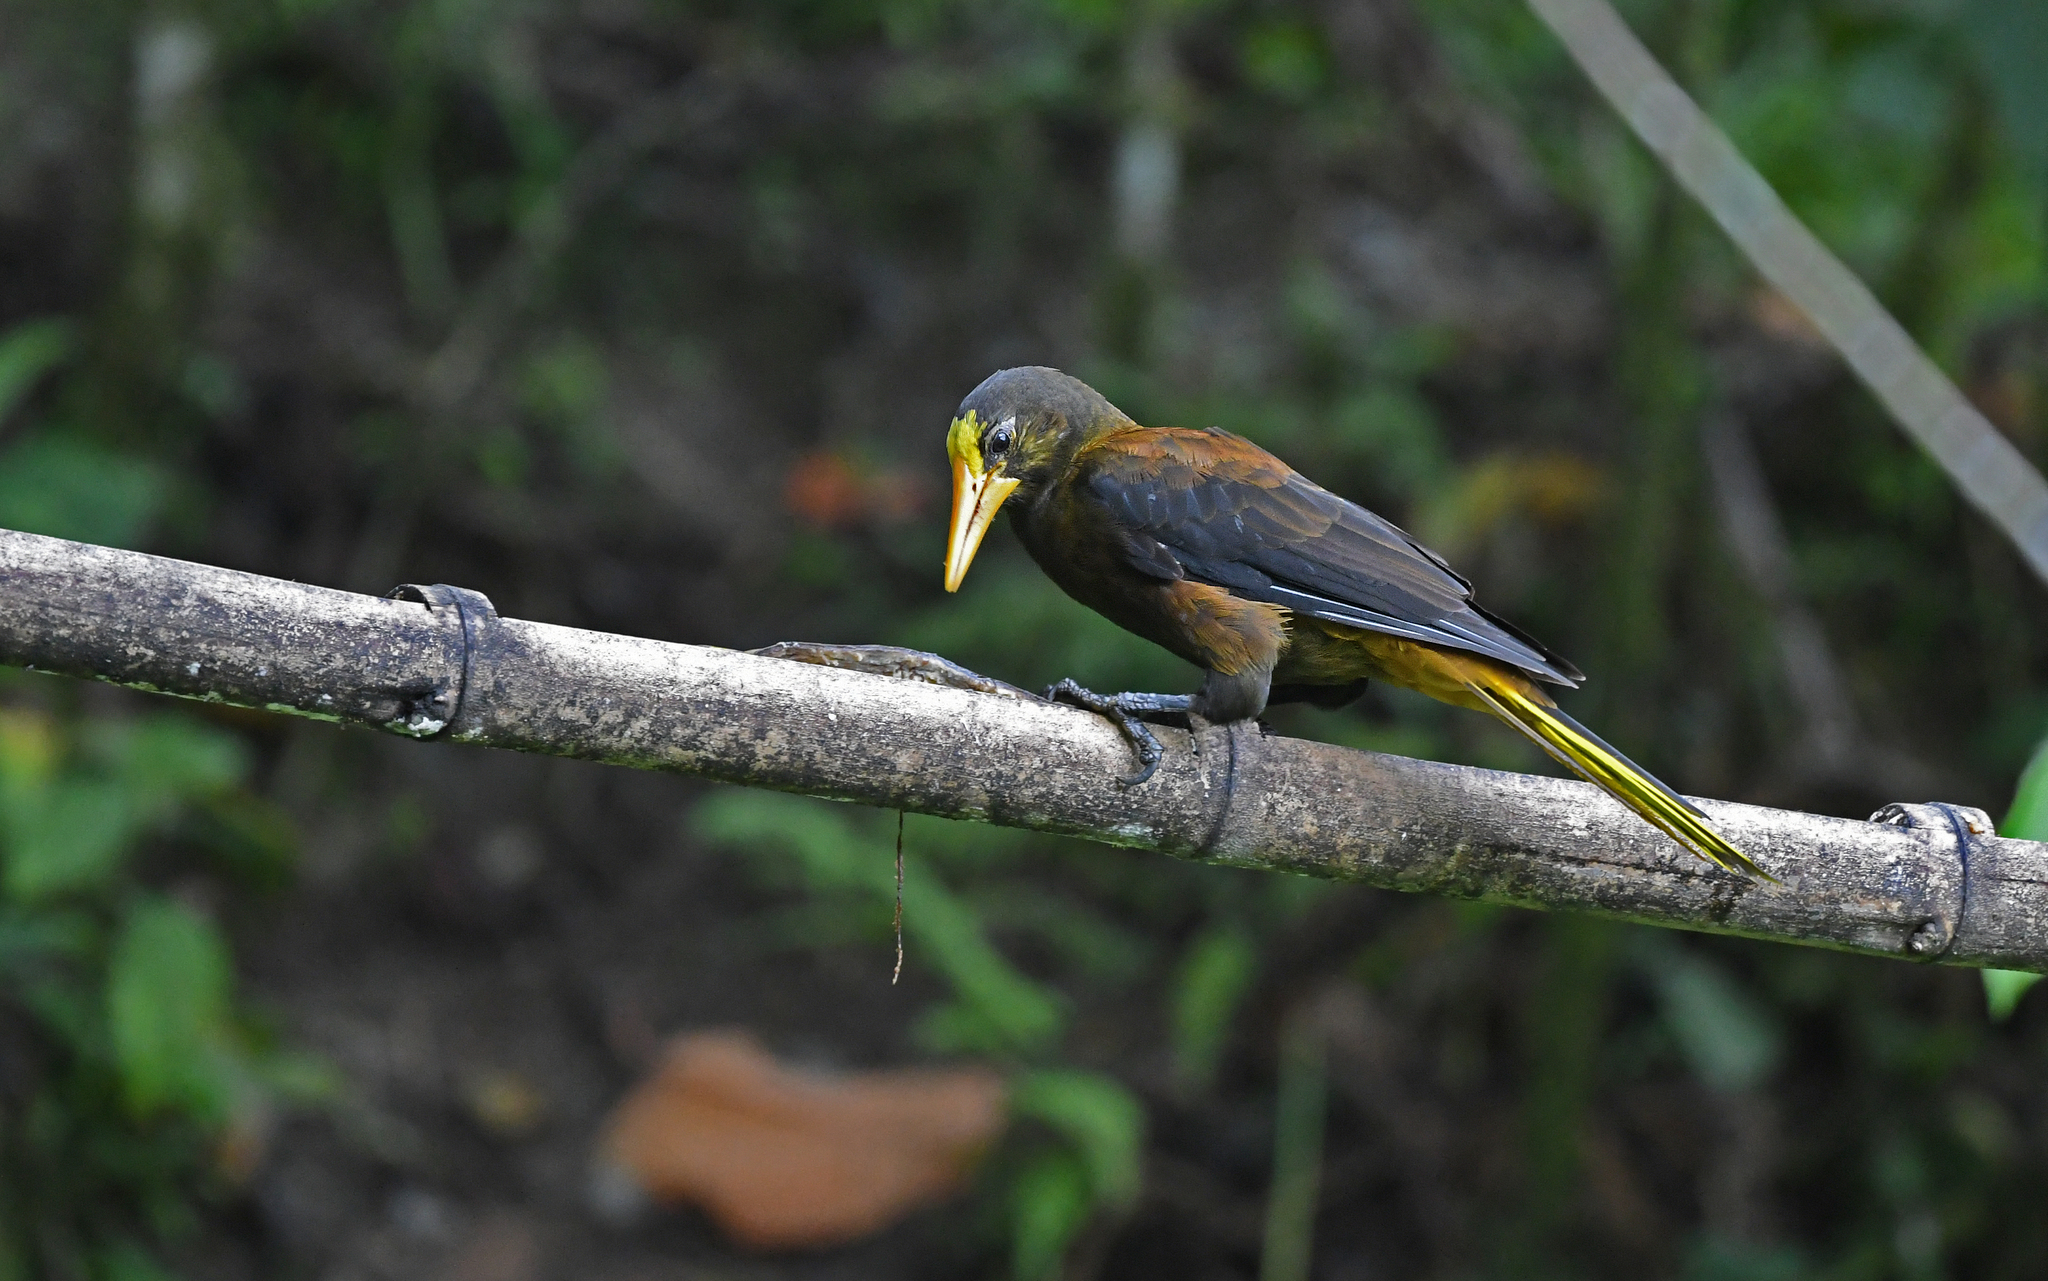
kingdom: Animalia
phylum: Chordata
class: Aves
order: Passeriformes
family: Icteridae
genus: Psarocolius
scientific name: Psarocolius angustifrons
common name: Russet-backed oropendola
